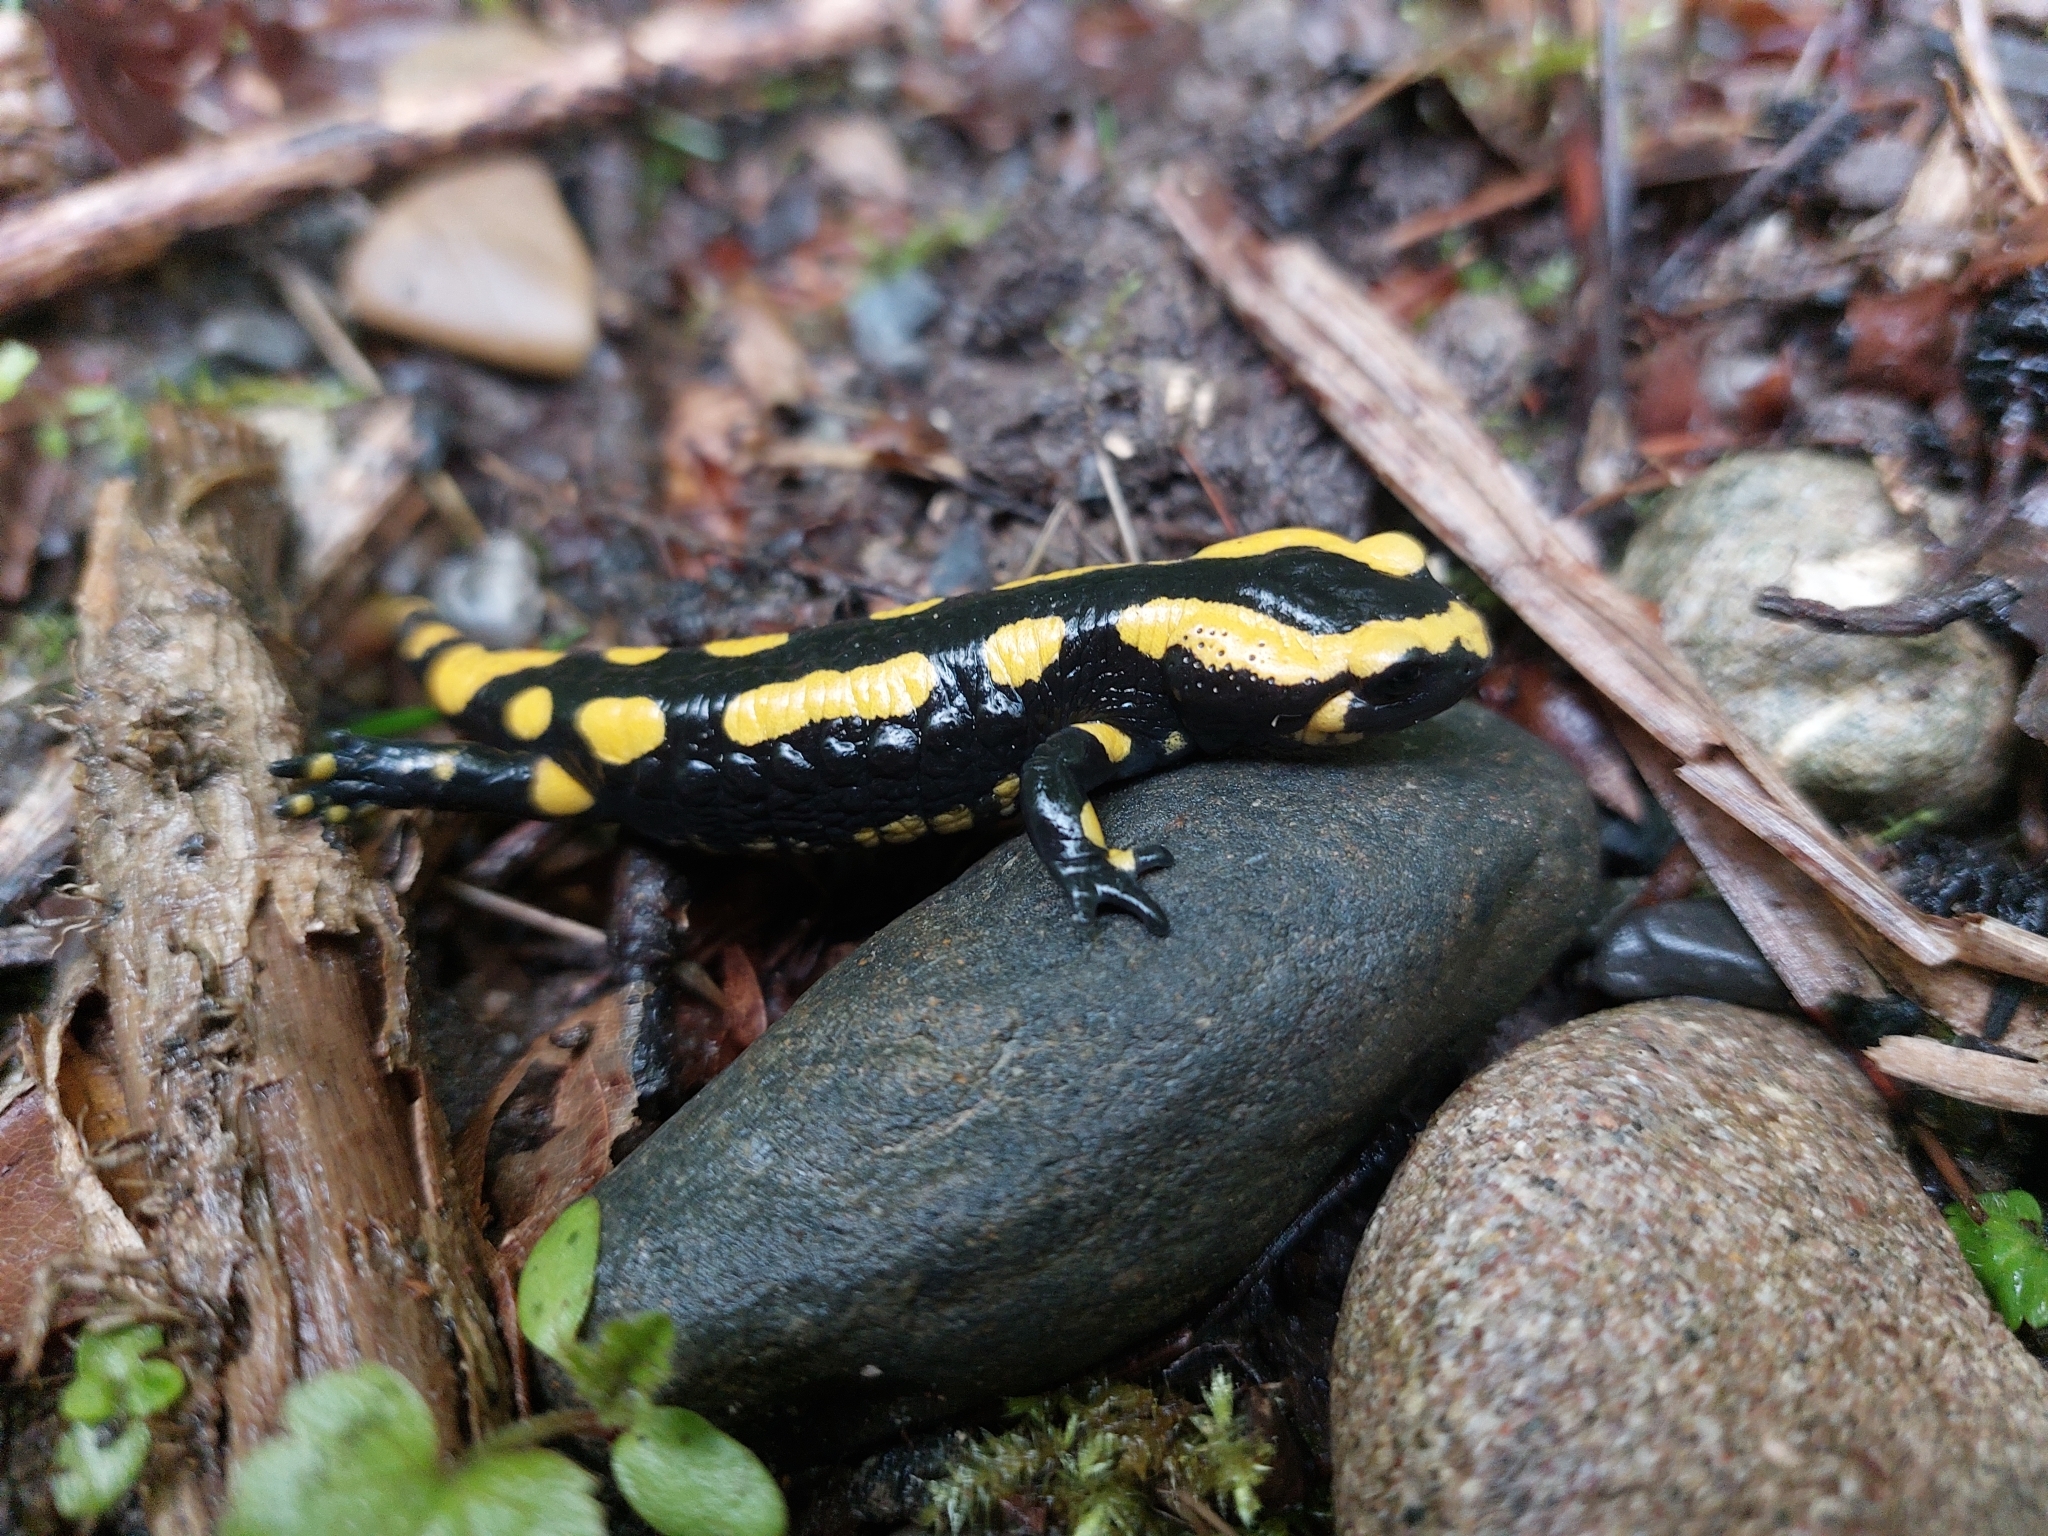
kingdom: Animalia
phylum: Chordata
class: Amphibia
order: Caudata
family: Salamandridae
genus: Salamandra
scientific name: Salamandra salamandra
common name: Fire salamander
